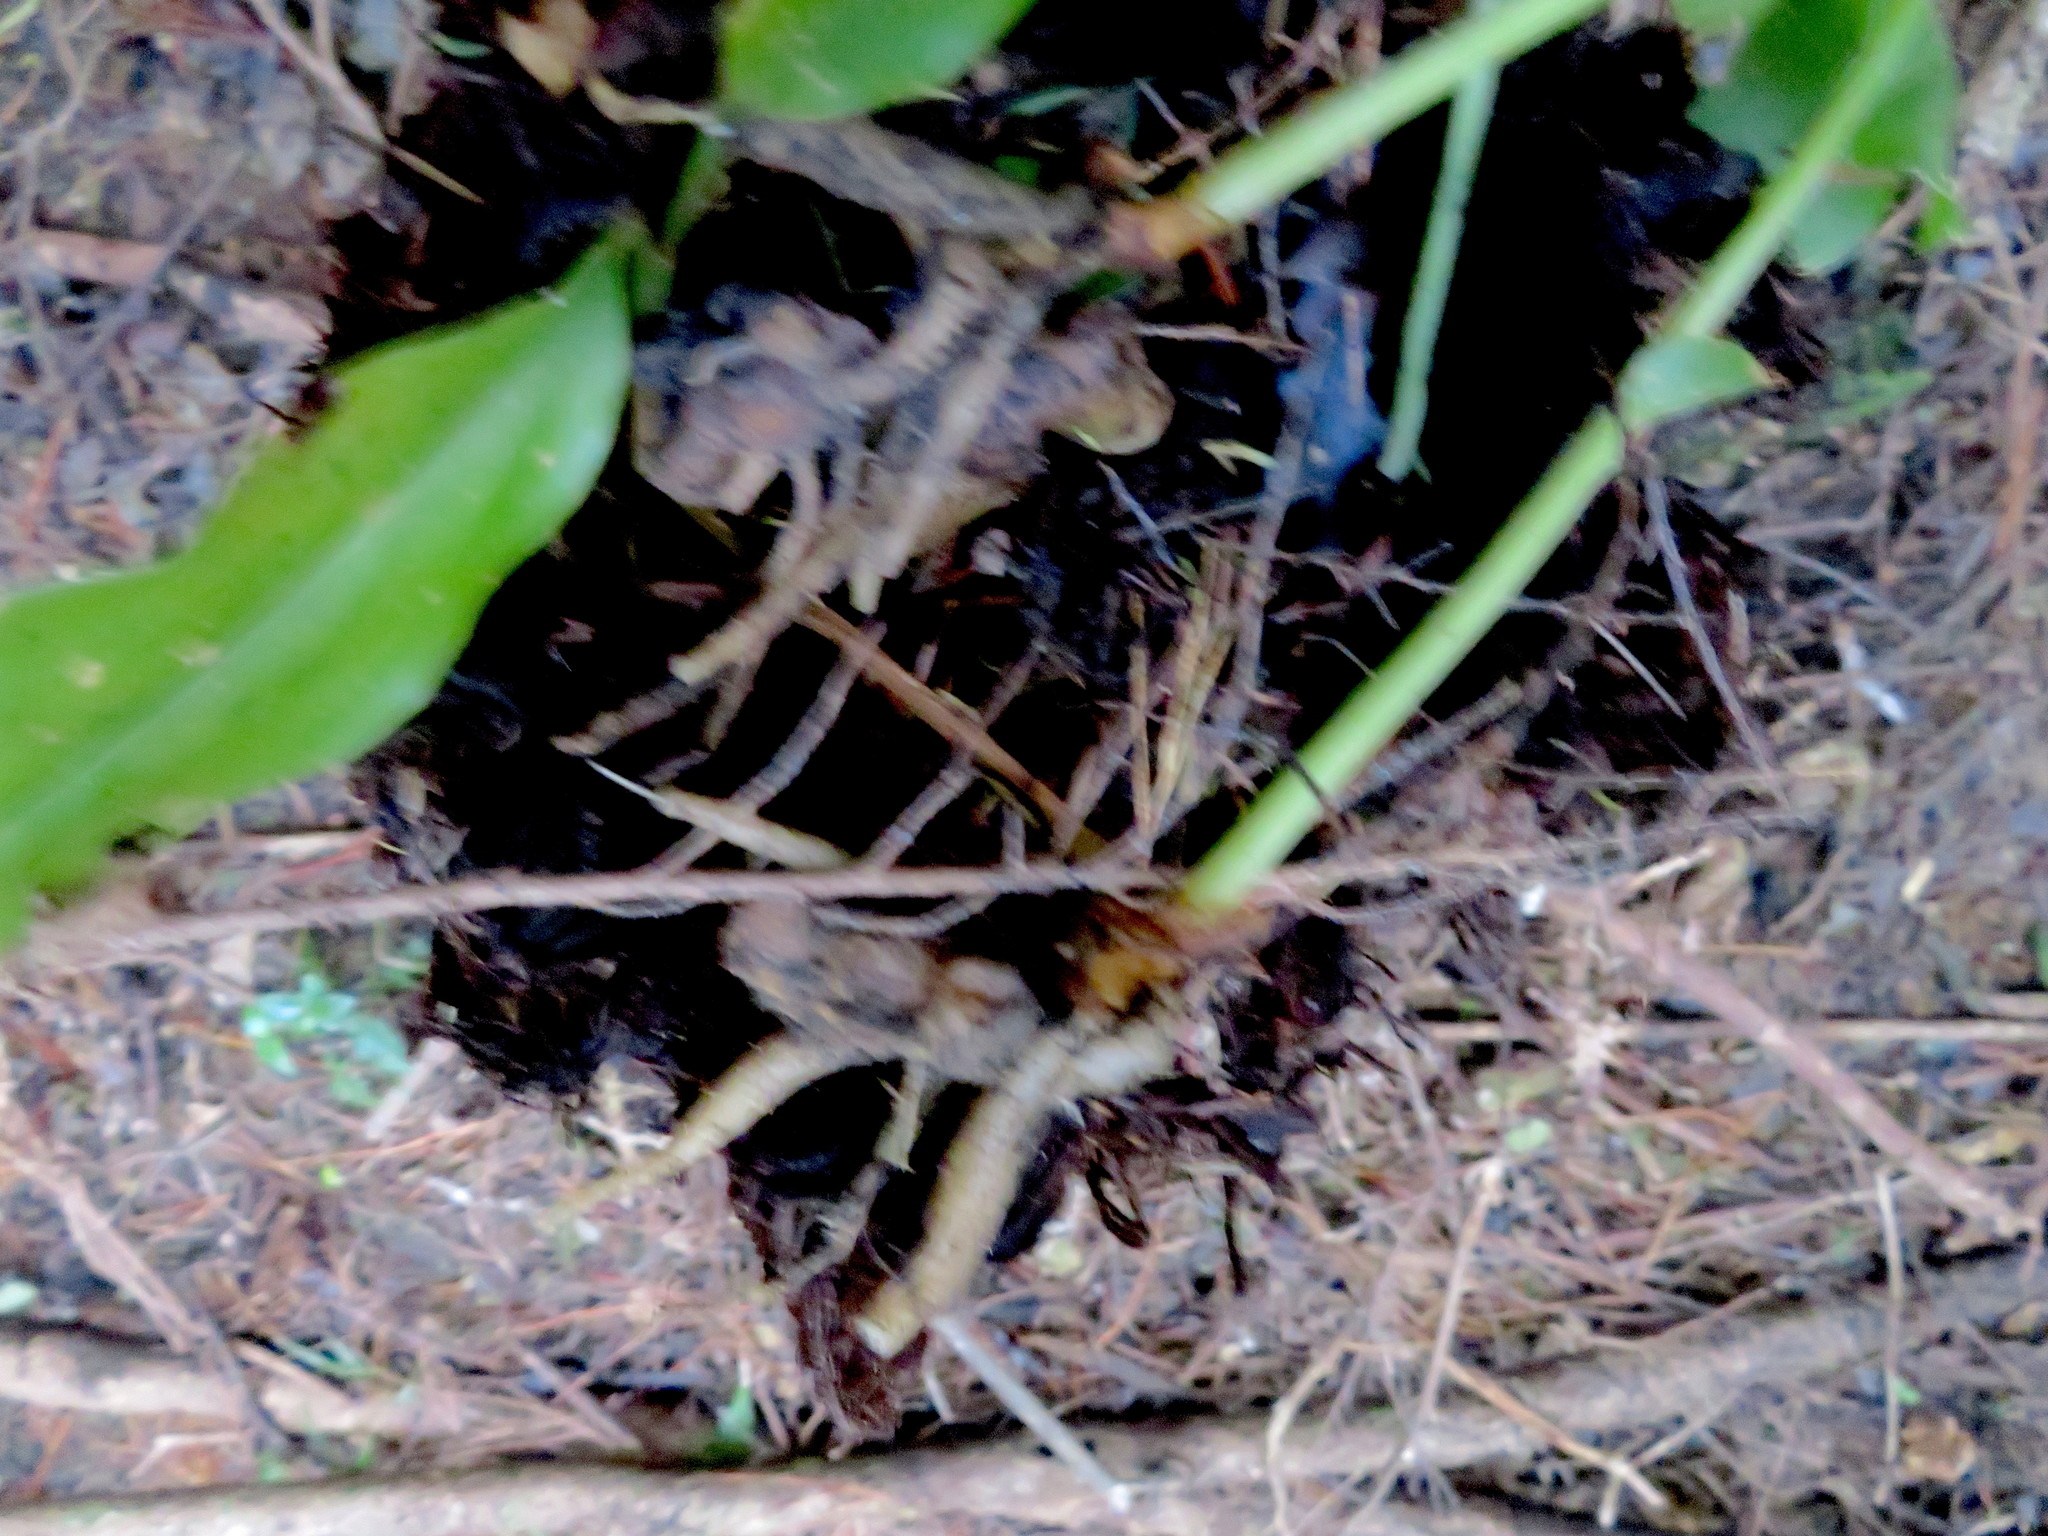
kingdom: Plantae
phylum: Tracheophyta
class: Liliopsida
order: Zingiberales
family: Zingiberaceae
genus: Hedychium
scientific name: Hedychium gardnerianum
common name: Himalayan ginger
